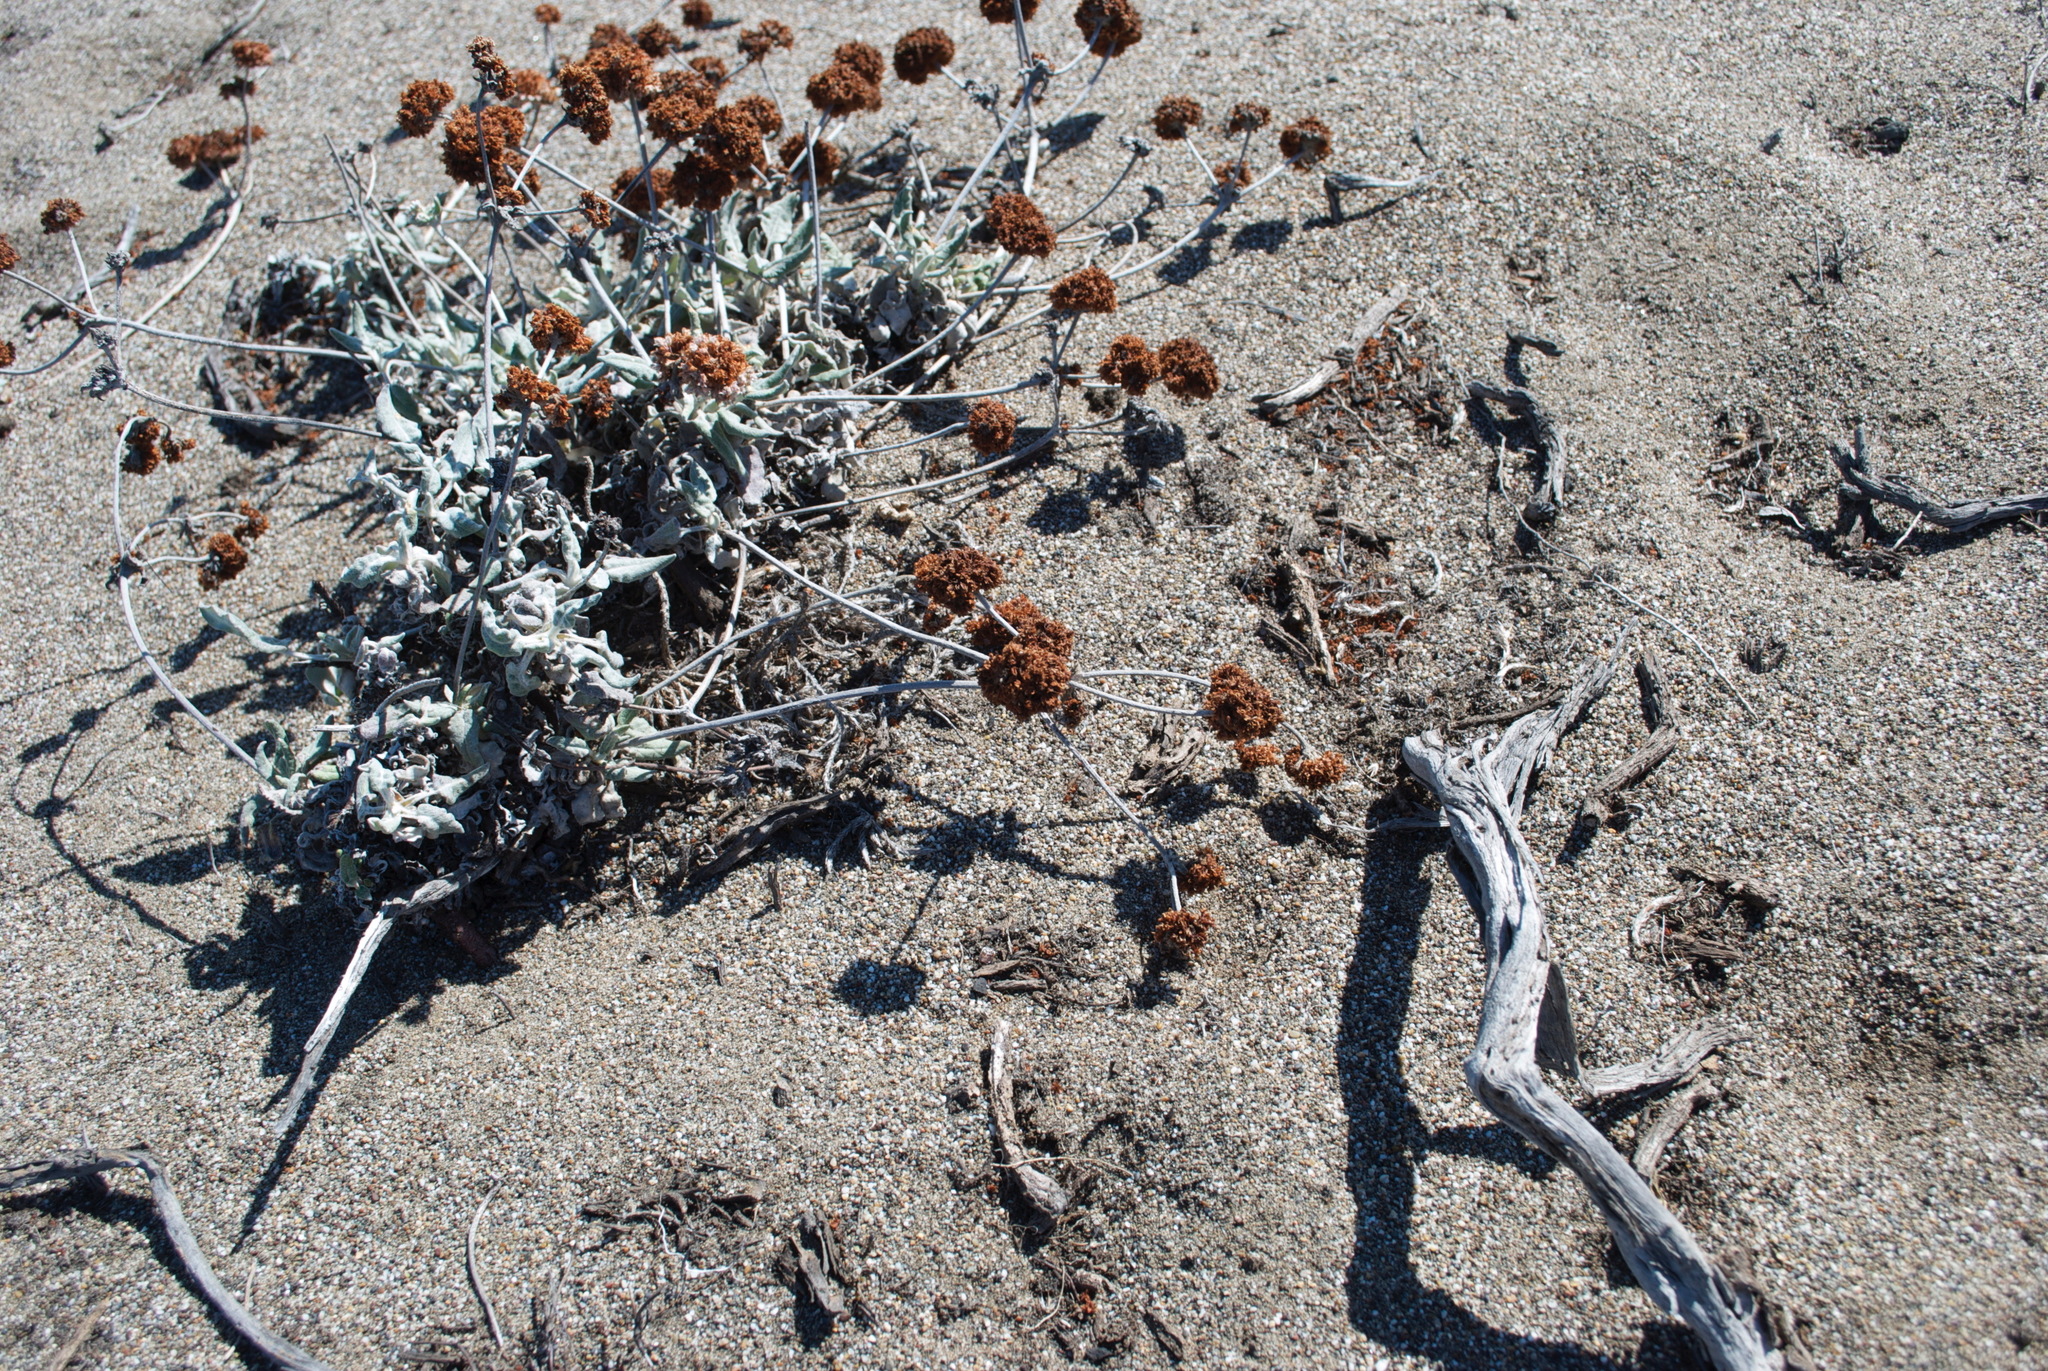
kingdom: Plantae
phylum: Tracheophyta
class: Magnoliopsida
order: Caryophyllales
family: Polygonaceae
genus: Eriogonum
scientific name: Eriogonum latifolium
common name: Seaside wild buckwheat
